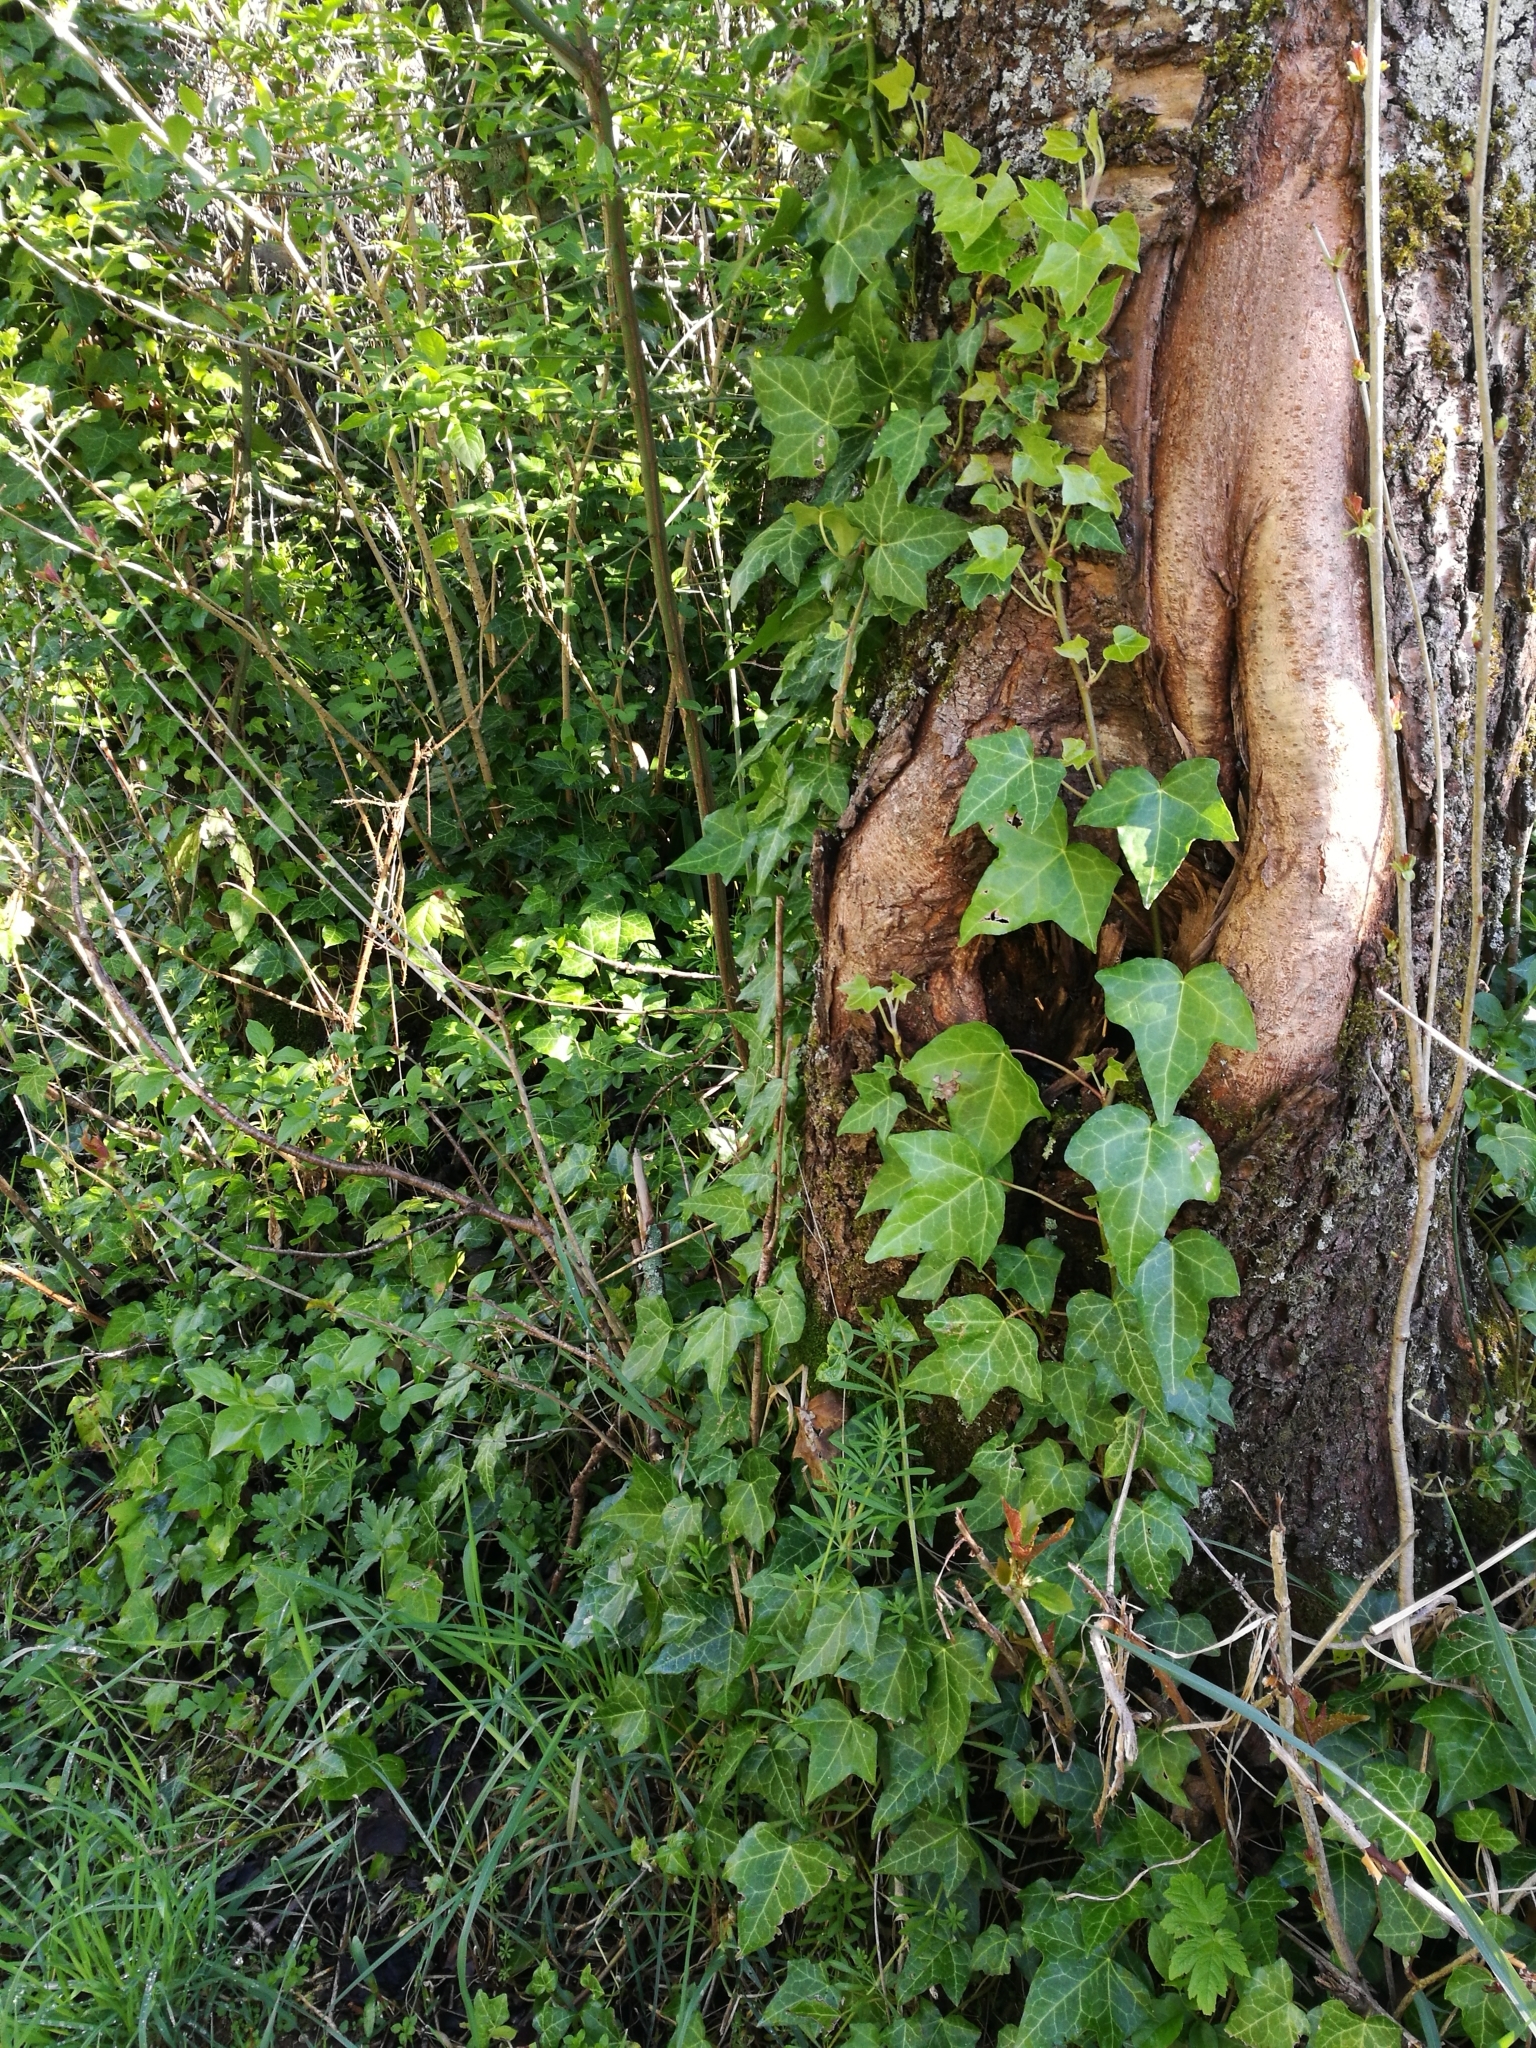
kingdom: Plantae
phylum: Tracheophyta
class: Magnoliopsida
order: Apiales
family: Araliaceae
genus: Hedera
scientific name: Hedera helix
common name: Ivy
